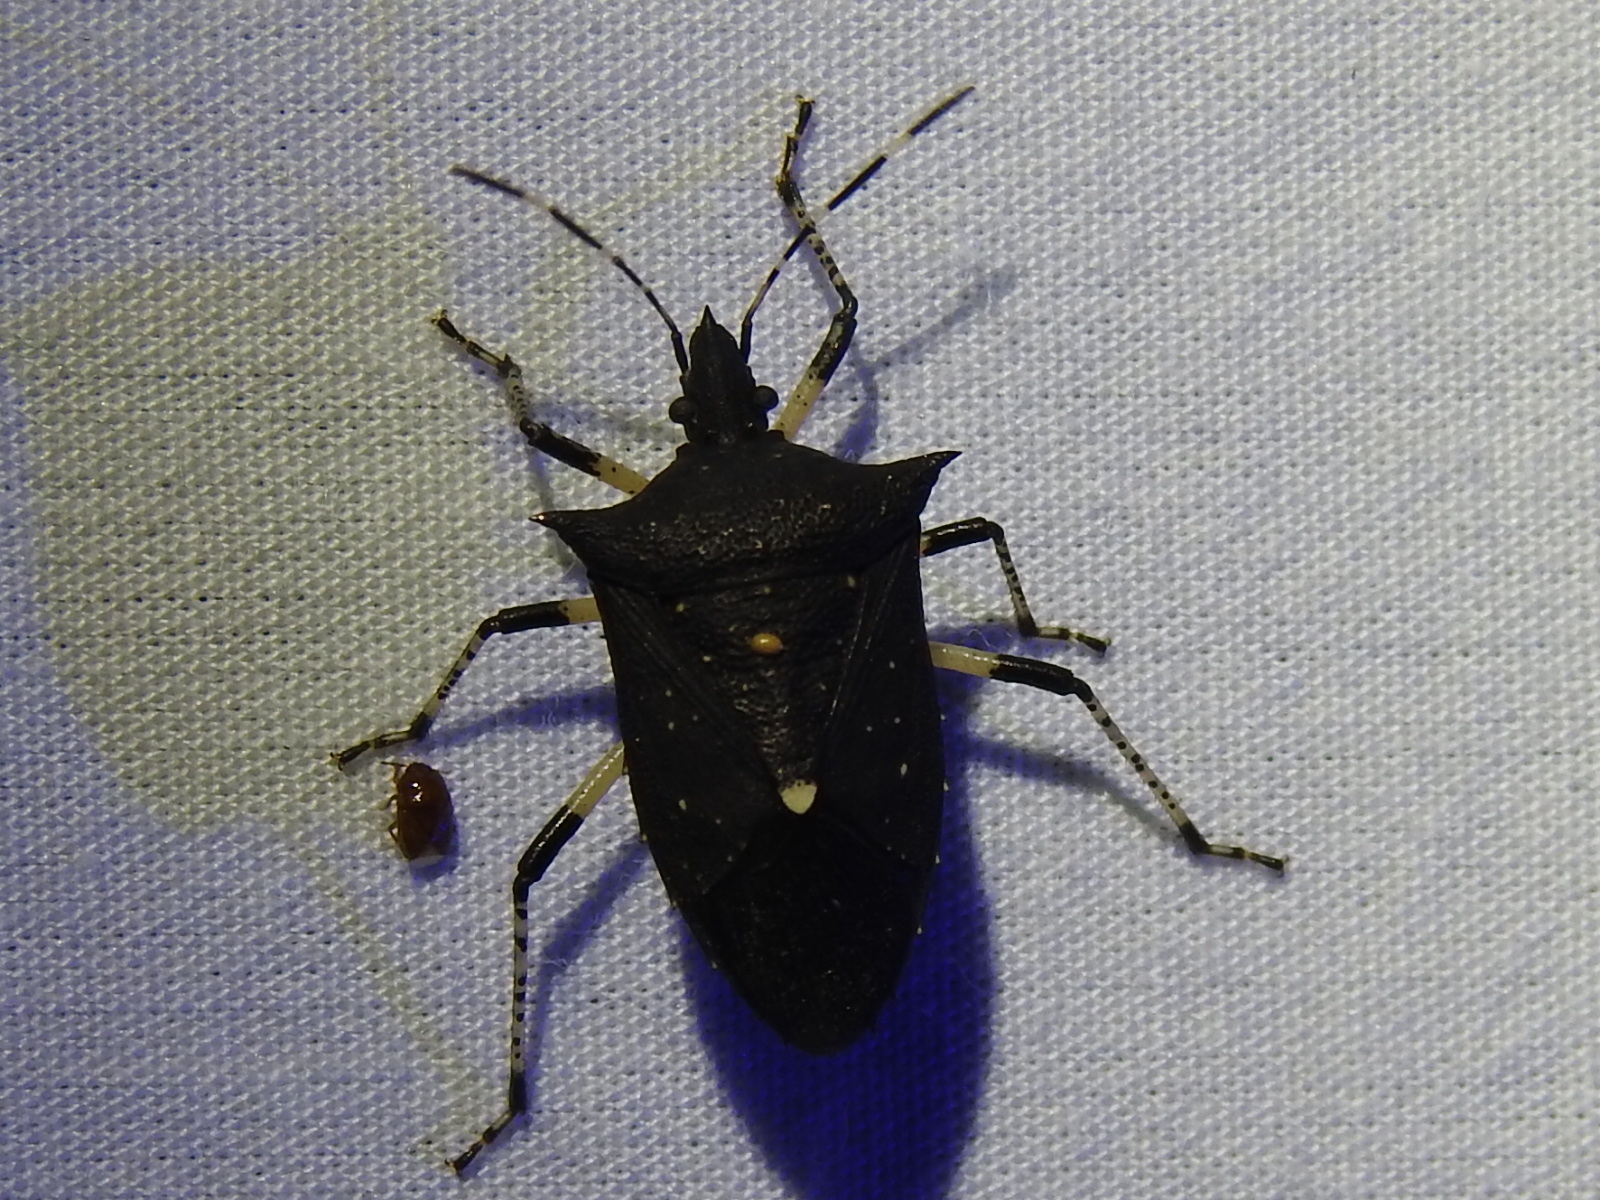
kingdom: Animalia
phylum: Arthropoda
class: Insecta
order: Hemiptera
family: Pentatomidae
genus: Proxys
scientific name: Proxys punctulatus
